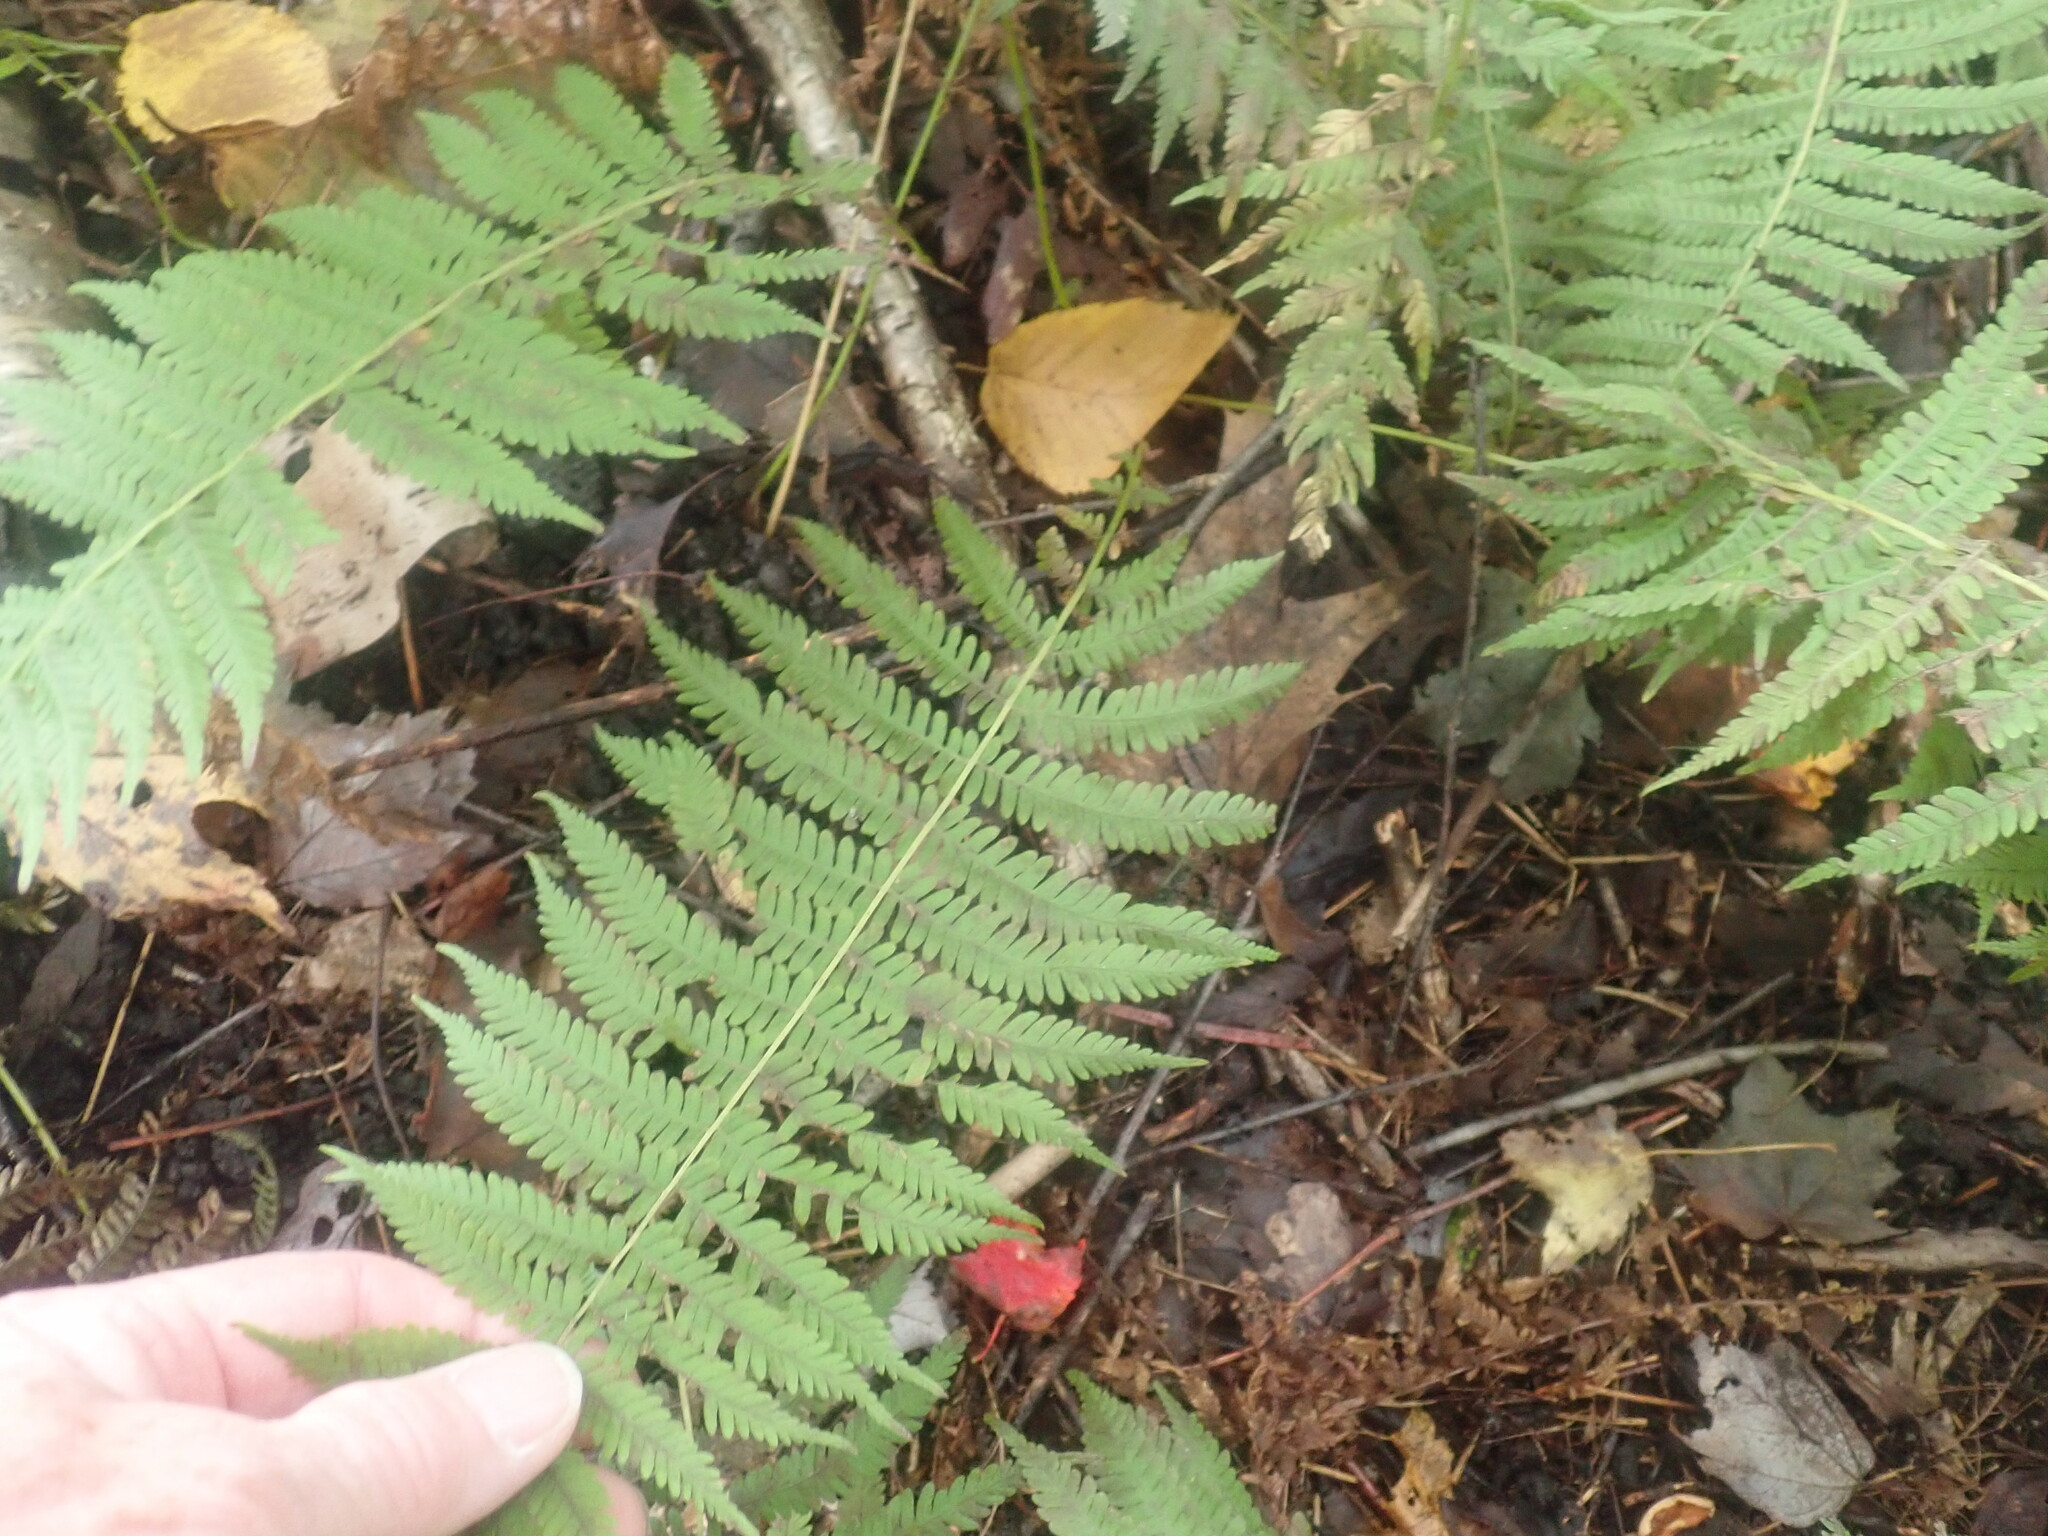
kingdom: Plantae
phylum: Tracheophyta
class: Polypodiopsida
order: Polypodiales
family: Thelypteridaceae
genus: Amauropelta
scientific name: Amauropelta noveboracensis
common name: New york fern
